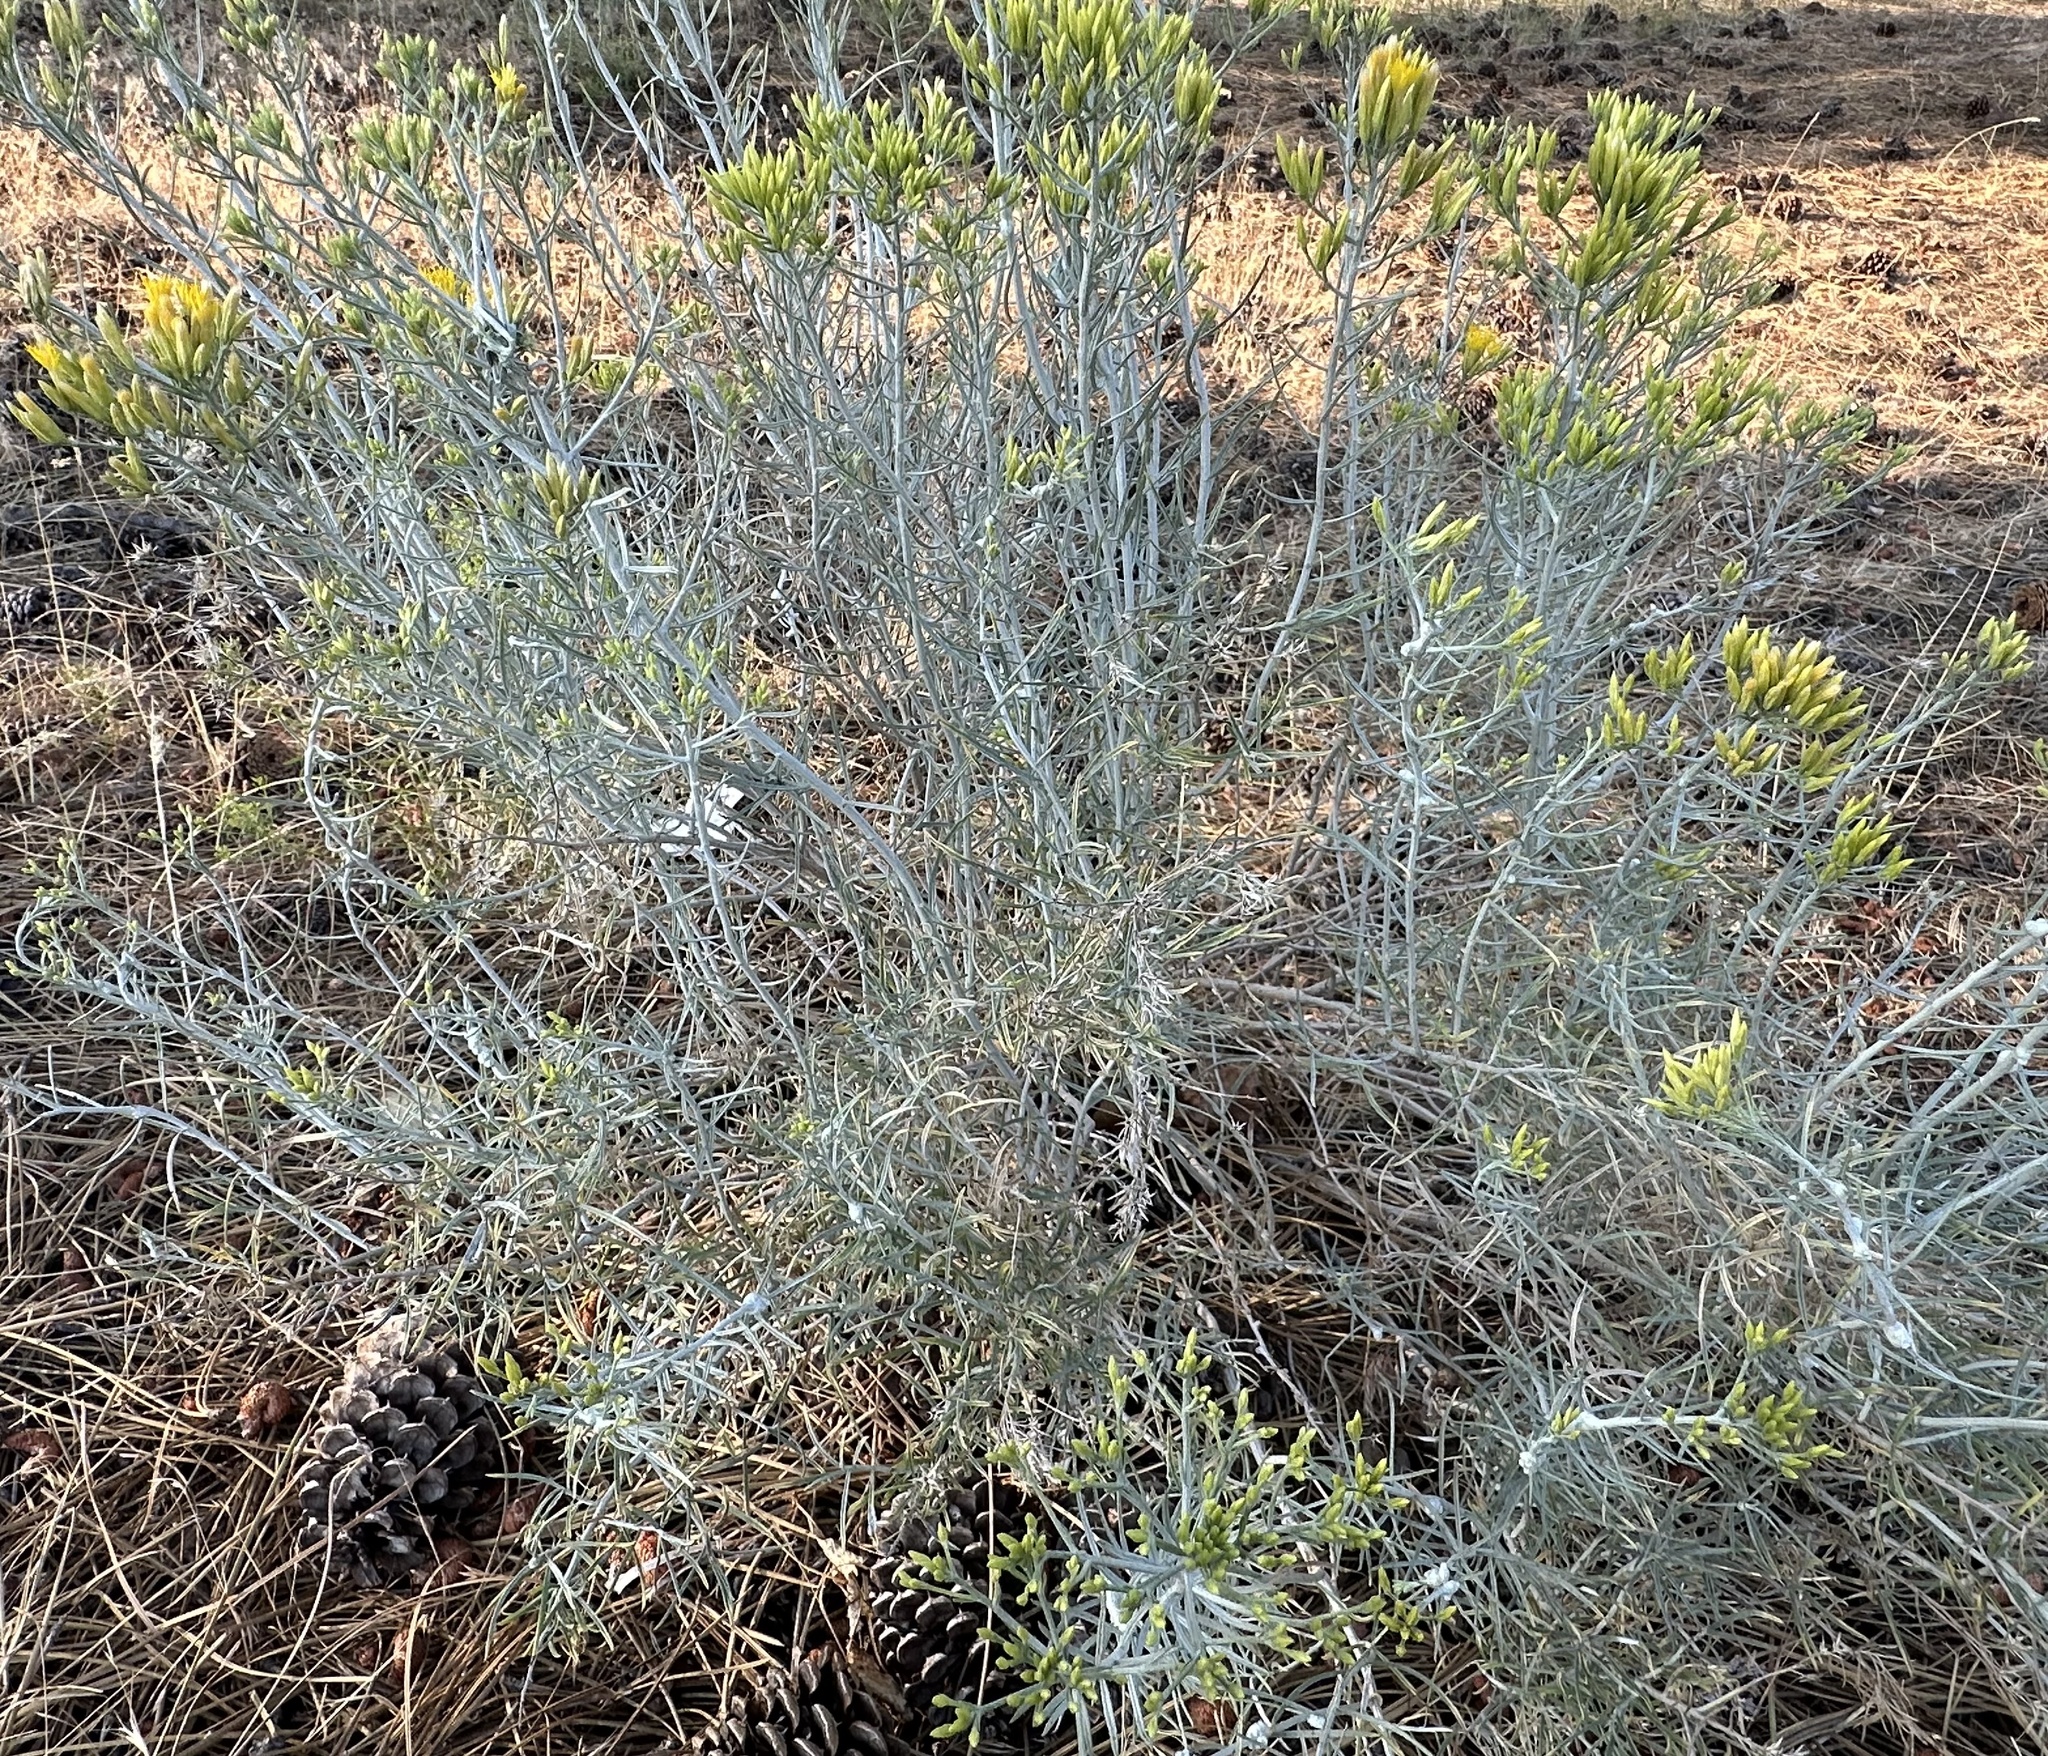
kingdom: Animalia
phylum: Arthropoda
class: Insecta
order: Diptera
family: Cecidomyiidae
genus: Rhopalomyia
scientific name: Rhopalomyia chrysothamni
